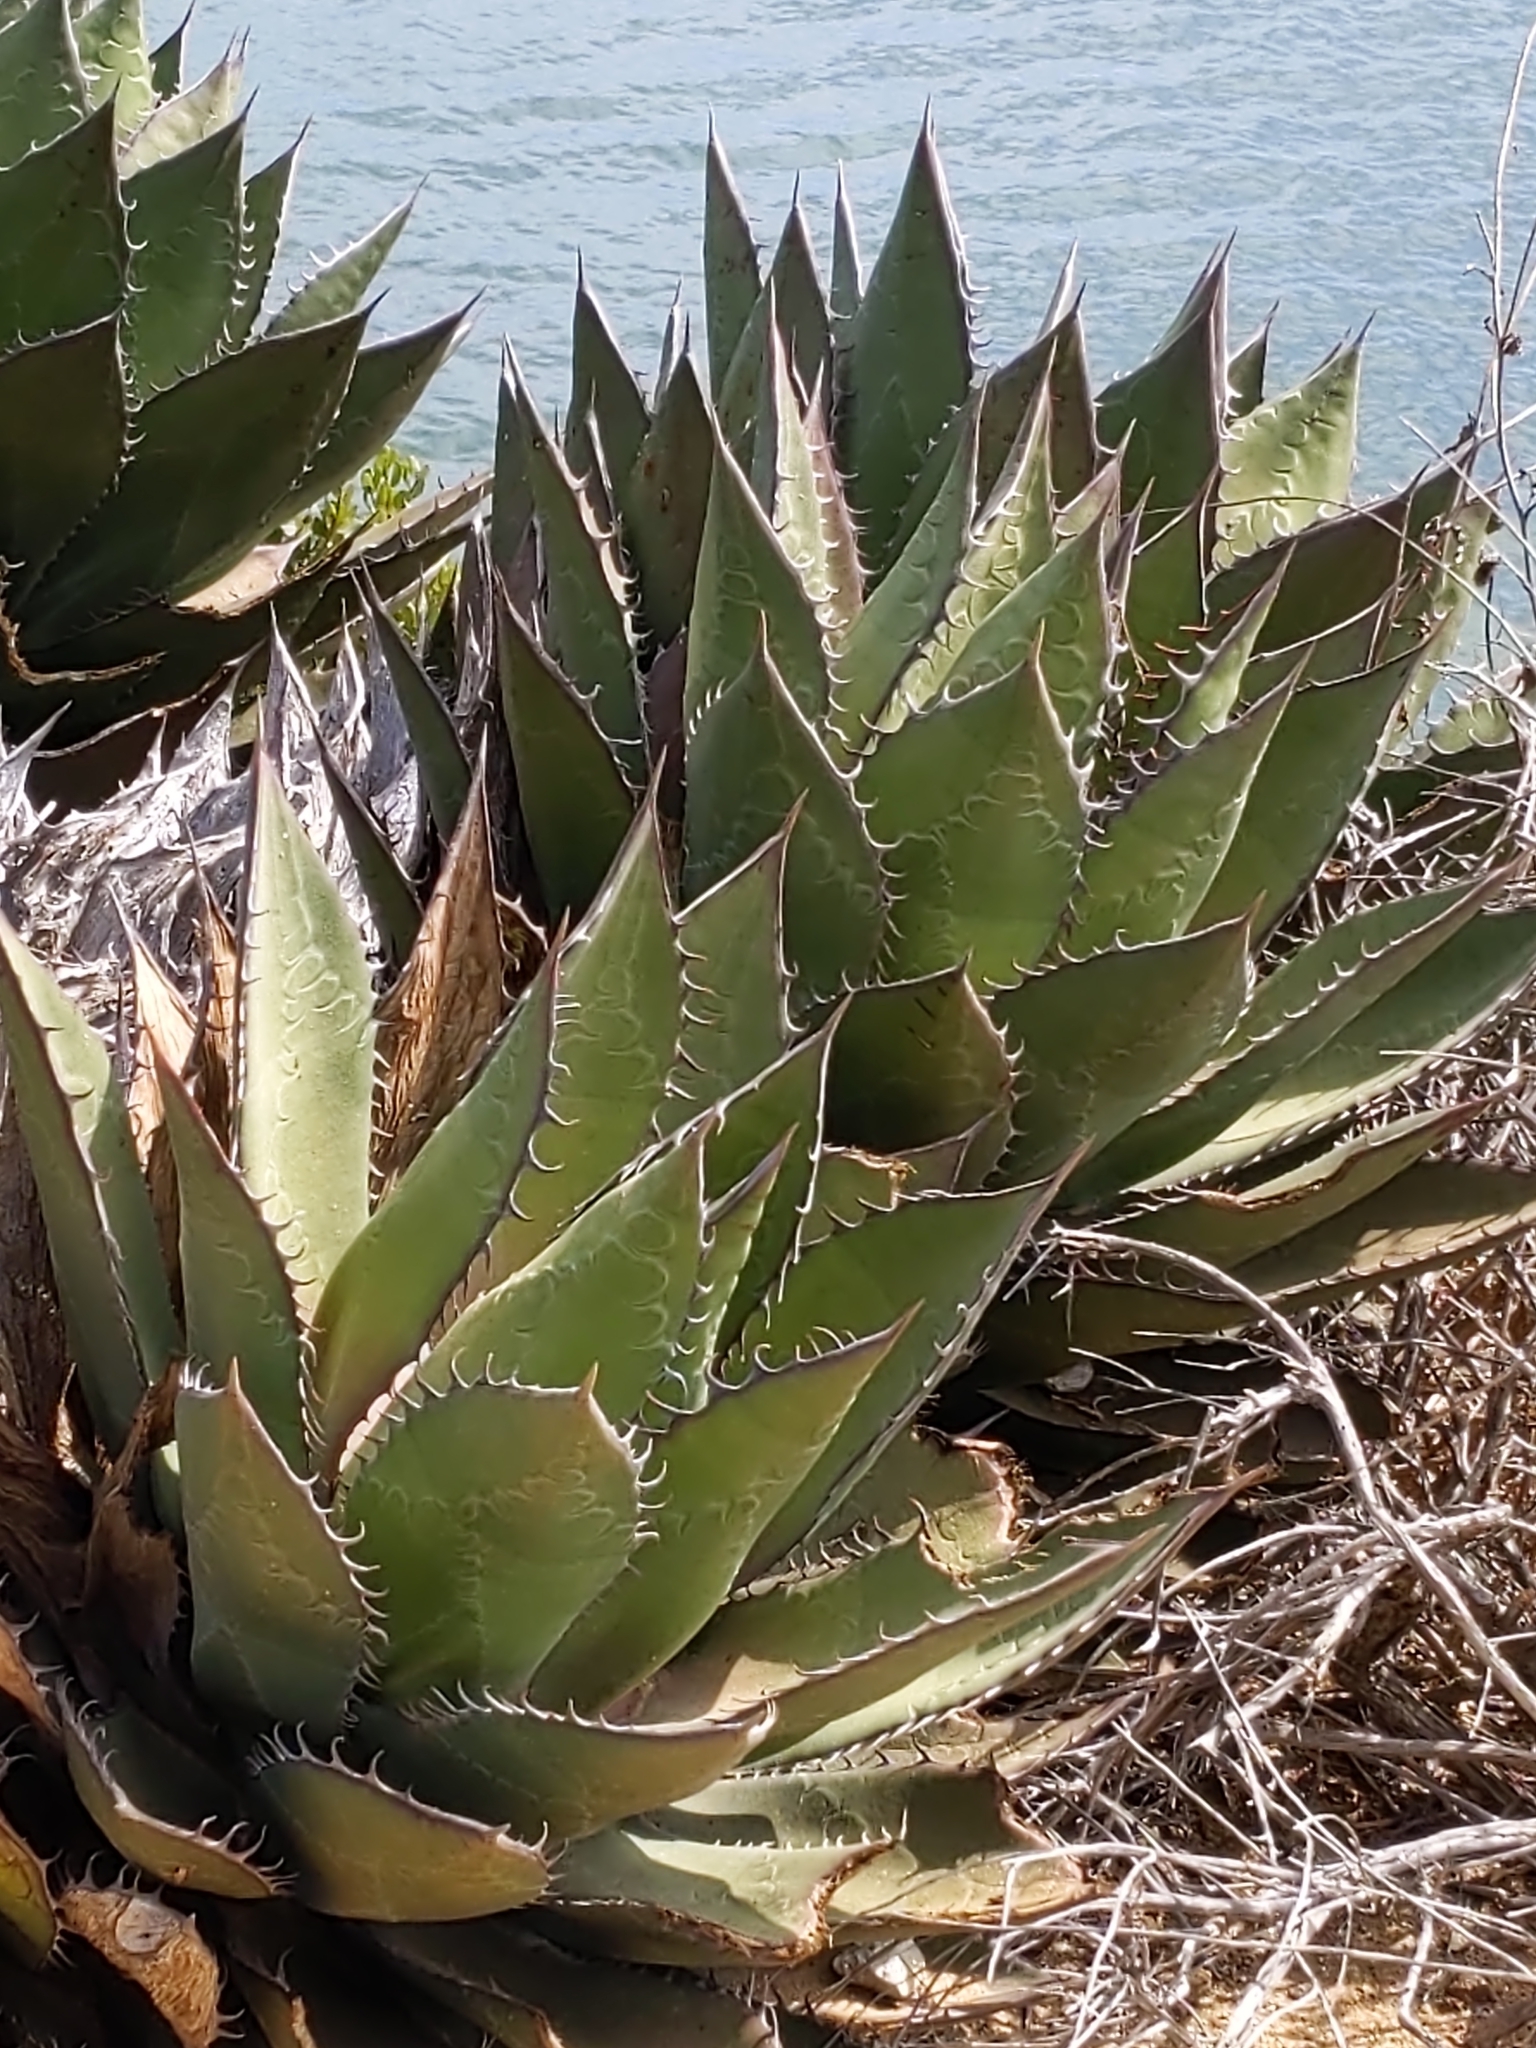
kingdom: Plantae
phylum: Tracheophyta
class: Liliopsida
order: Asparagales
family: Asparagaceae
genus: Agave
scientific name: Agave shawii
